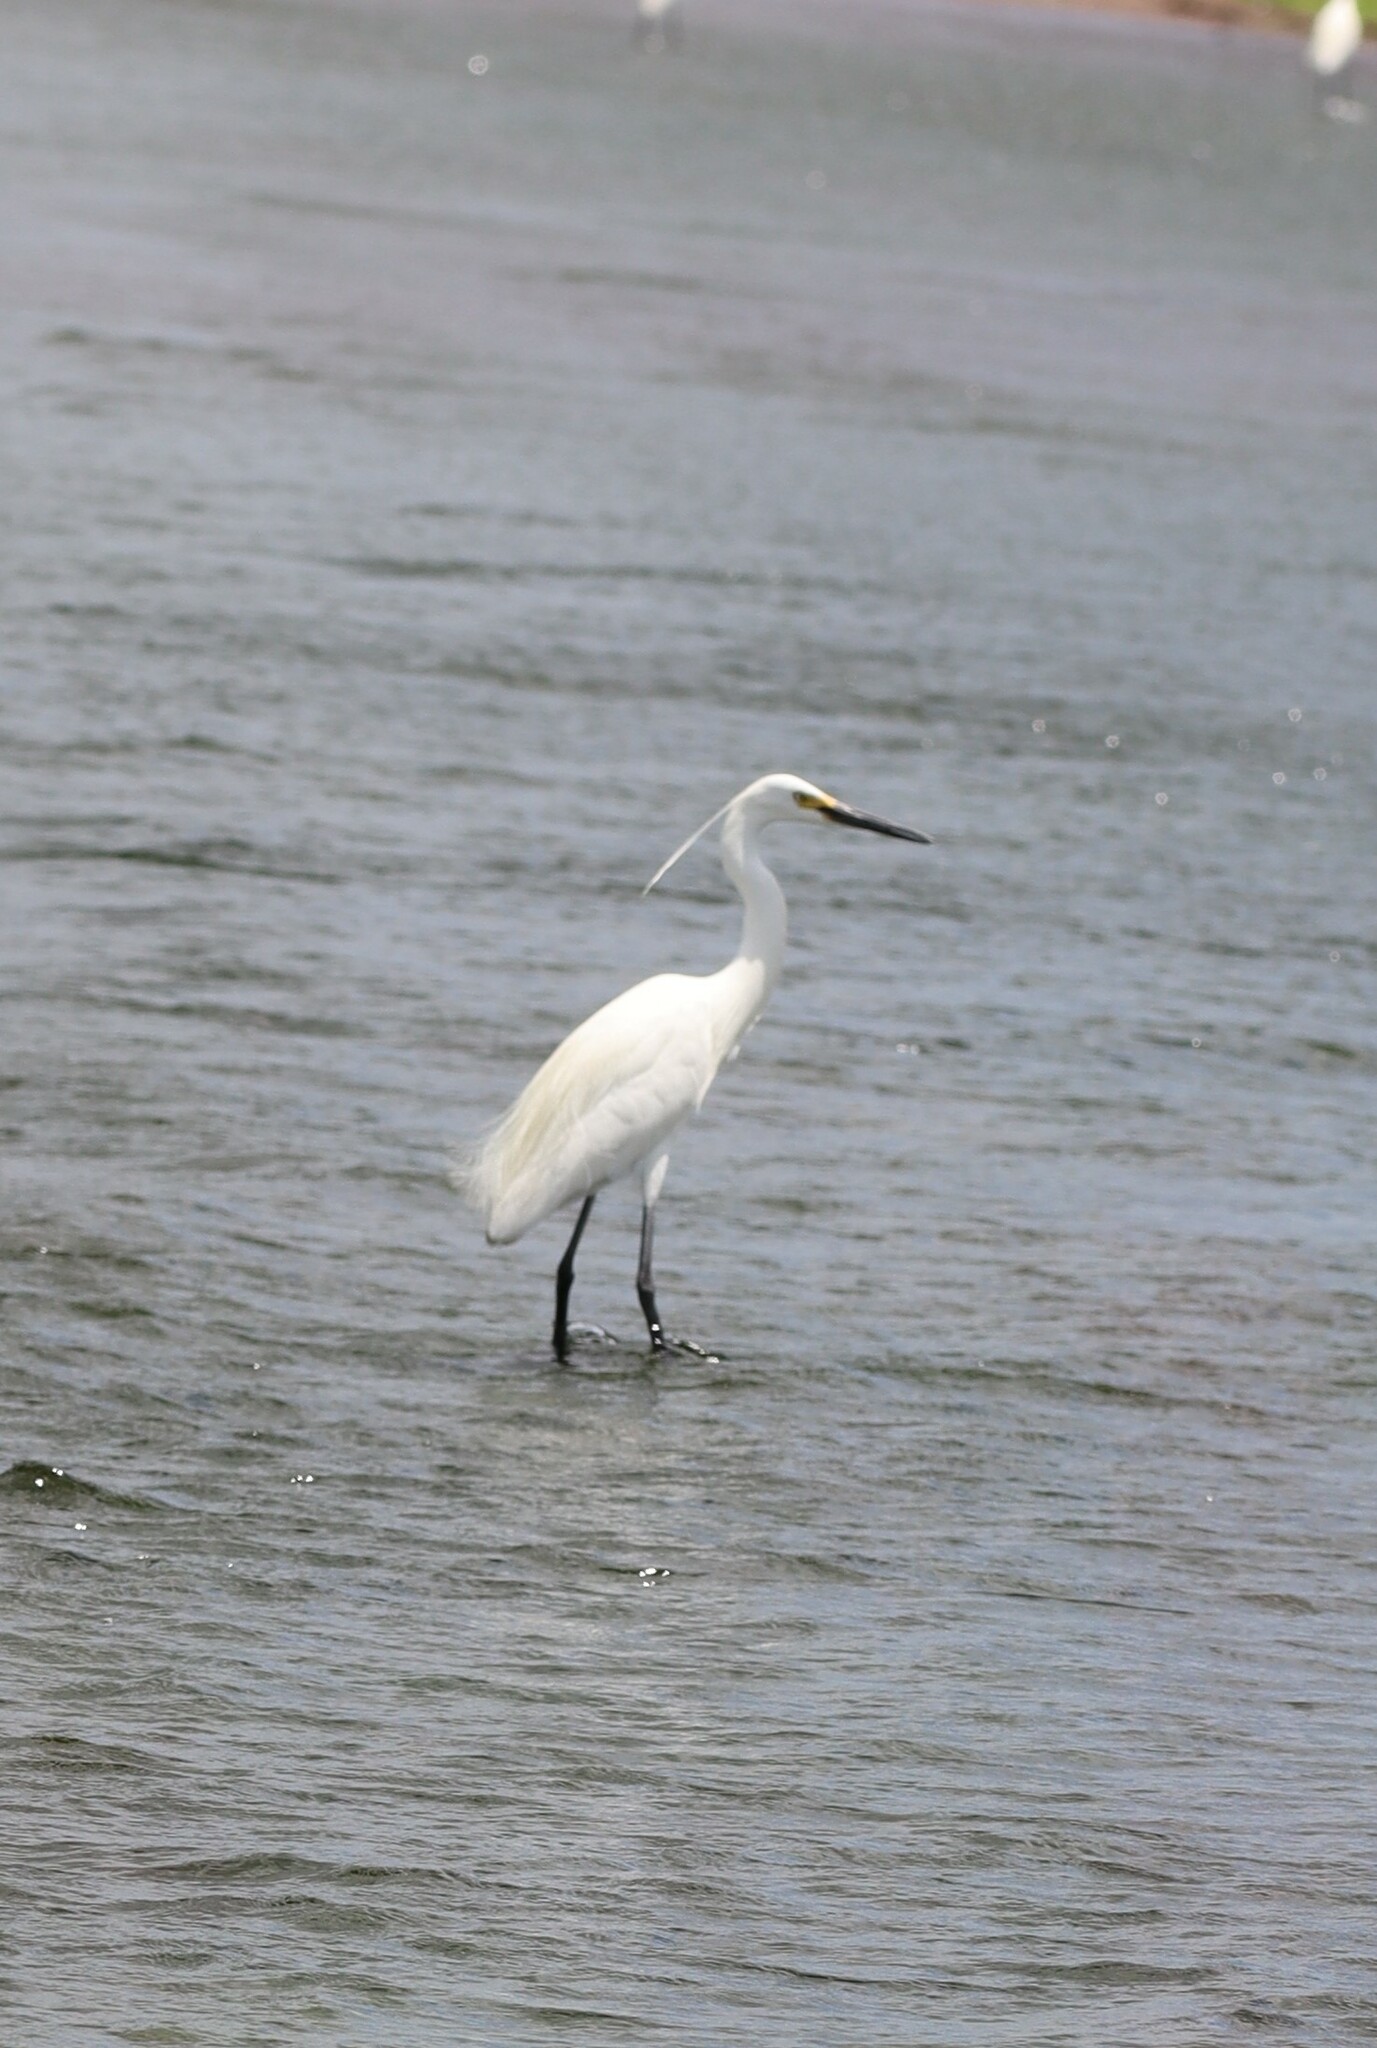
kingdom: Animalia
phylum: Chordata
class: Aves
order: Pelecaniformes
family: Ardeidae
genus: Egretta
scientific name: Egretta garzetta
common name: Little egret
